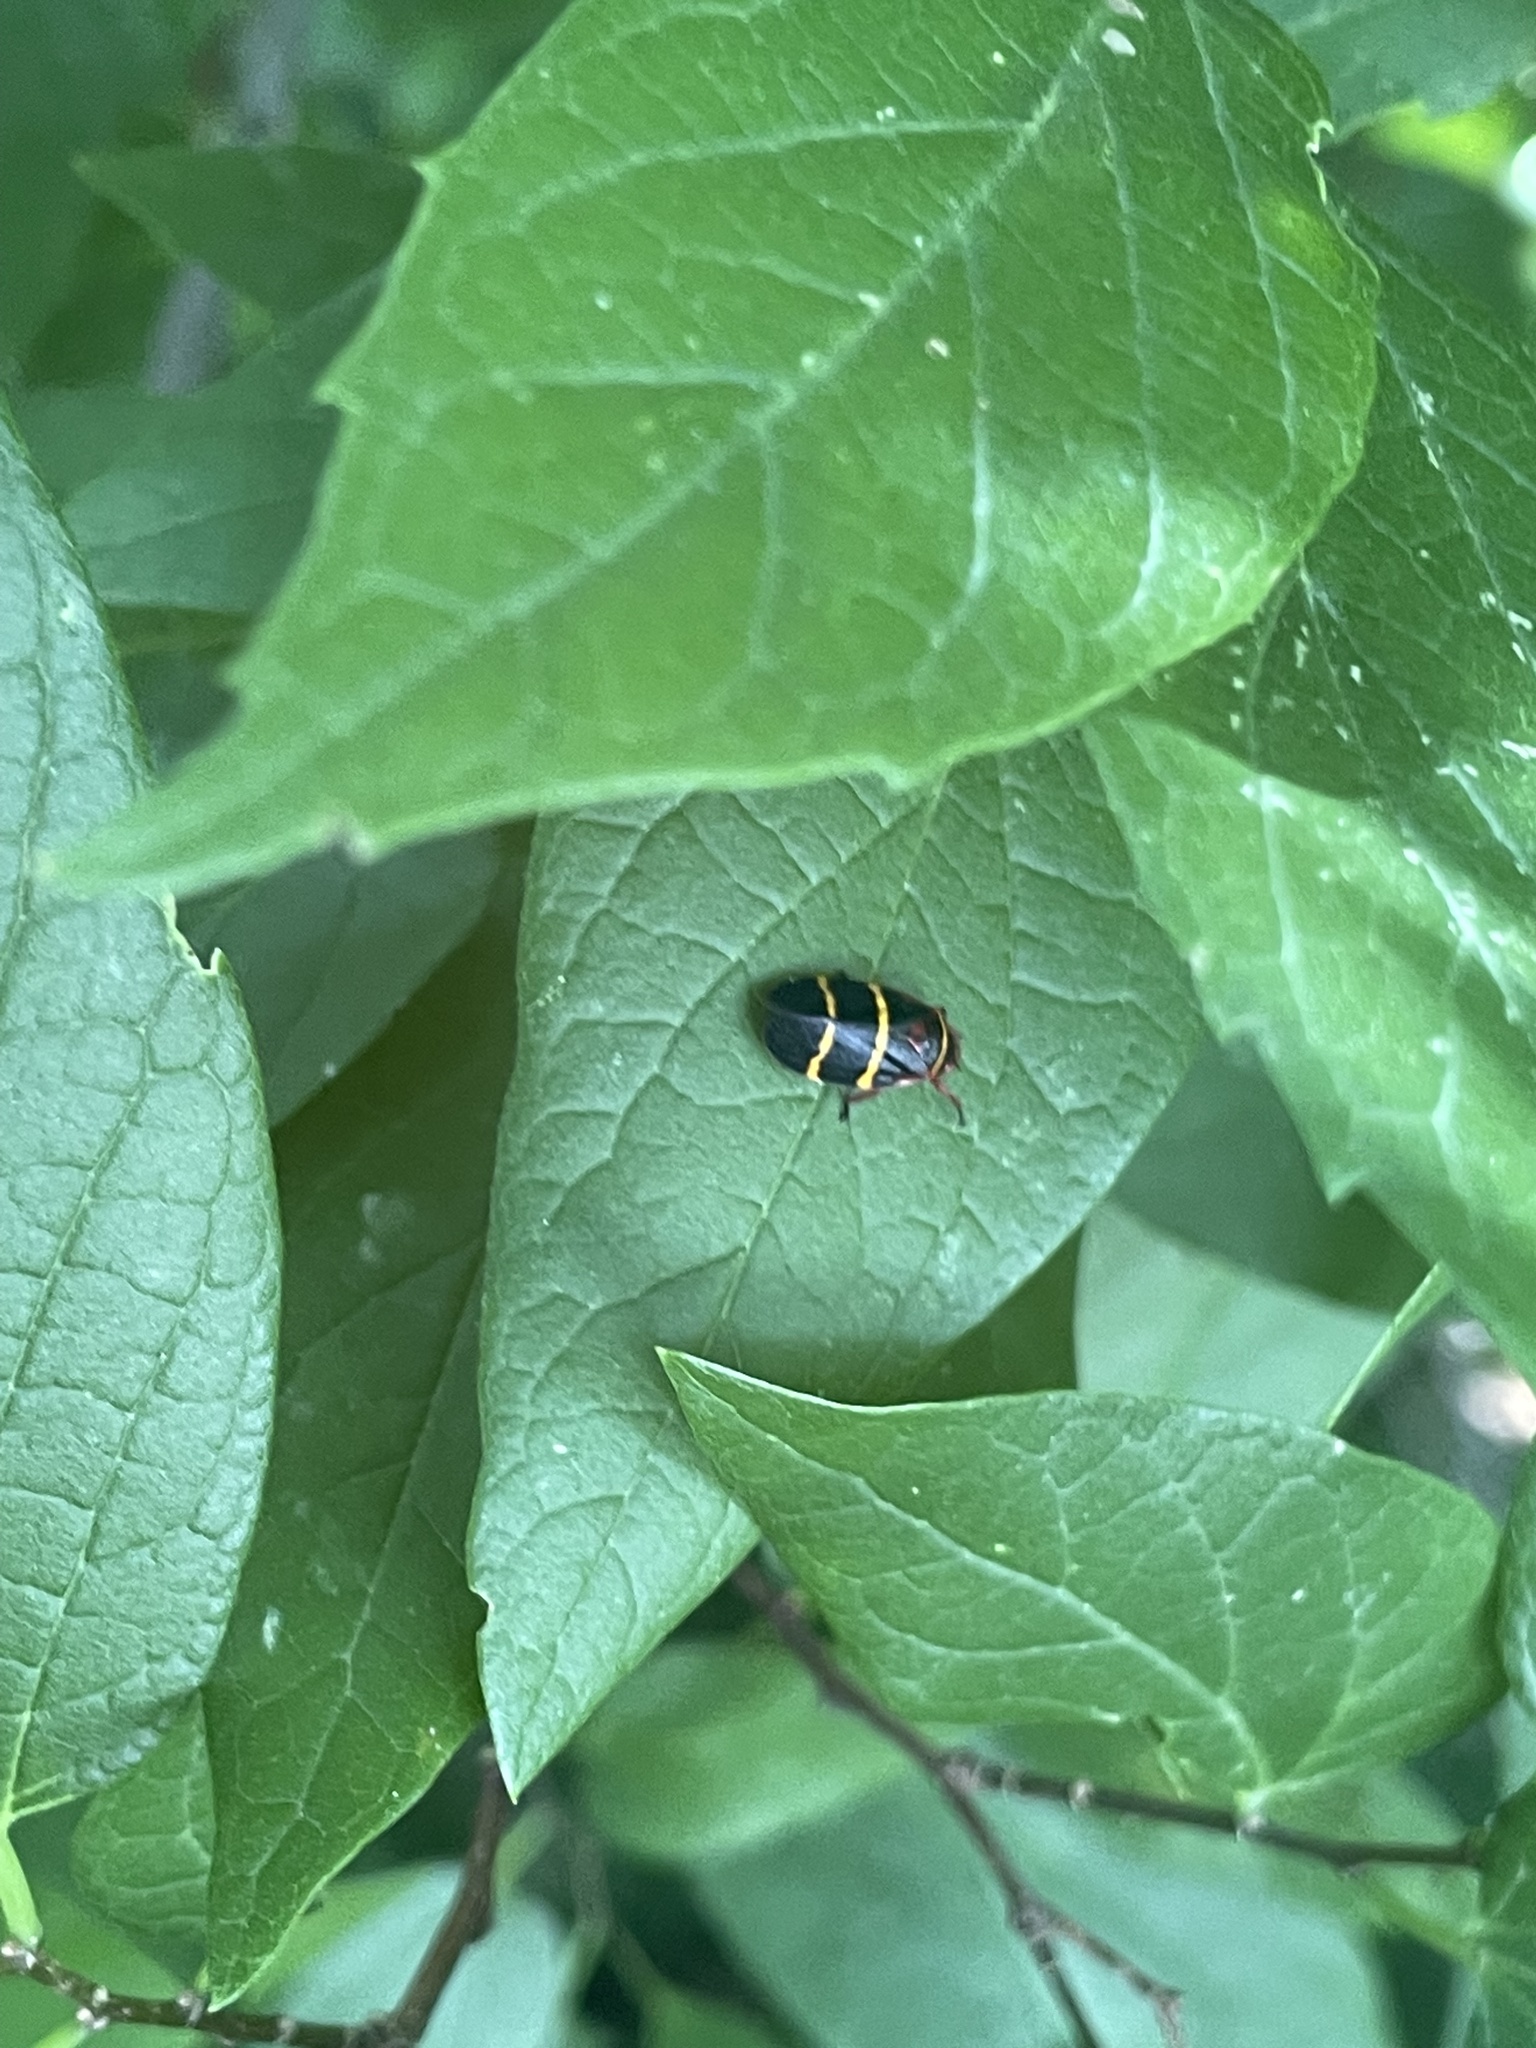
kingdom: Animalia
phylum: Arthropoda
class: Insecta
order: Hemiptera
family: Cercopidae
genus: Prosapia
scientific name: Prosapia bicincta
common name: Twolined spittlebug
